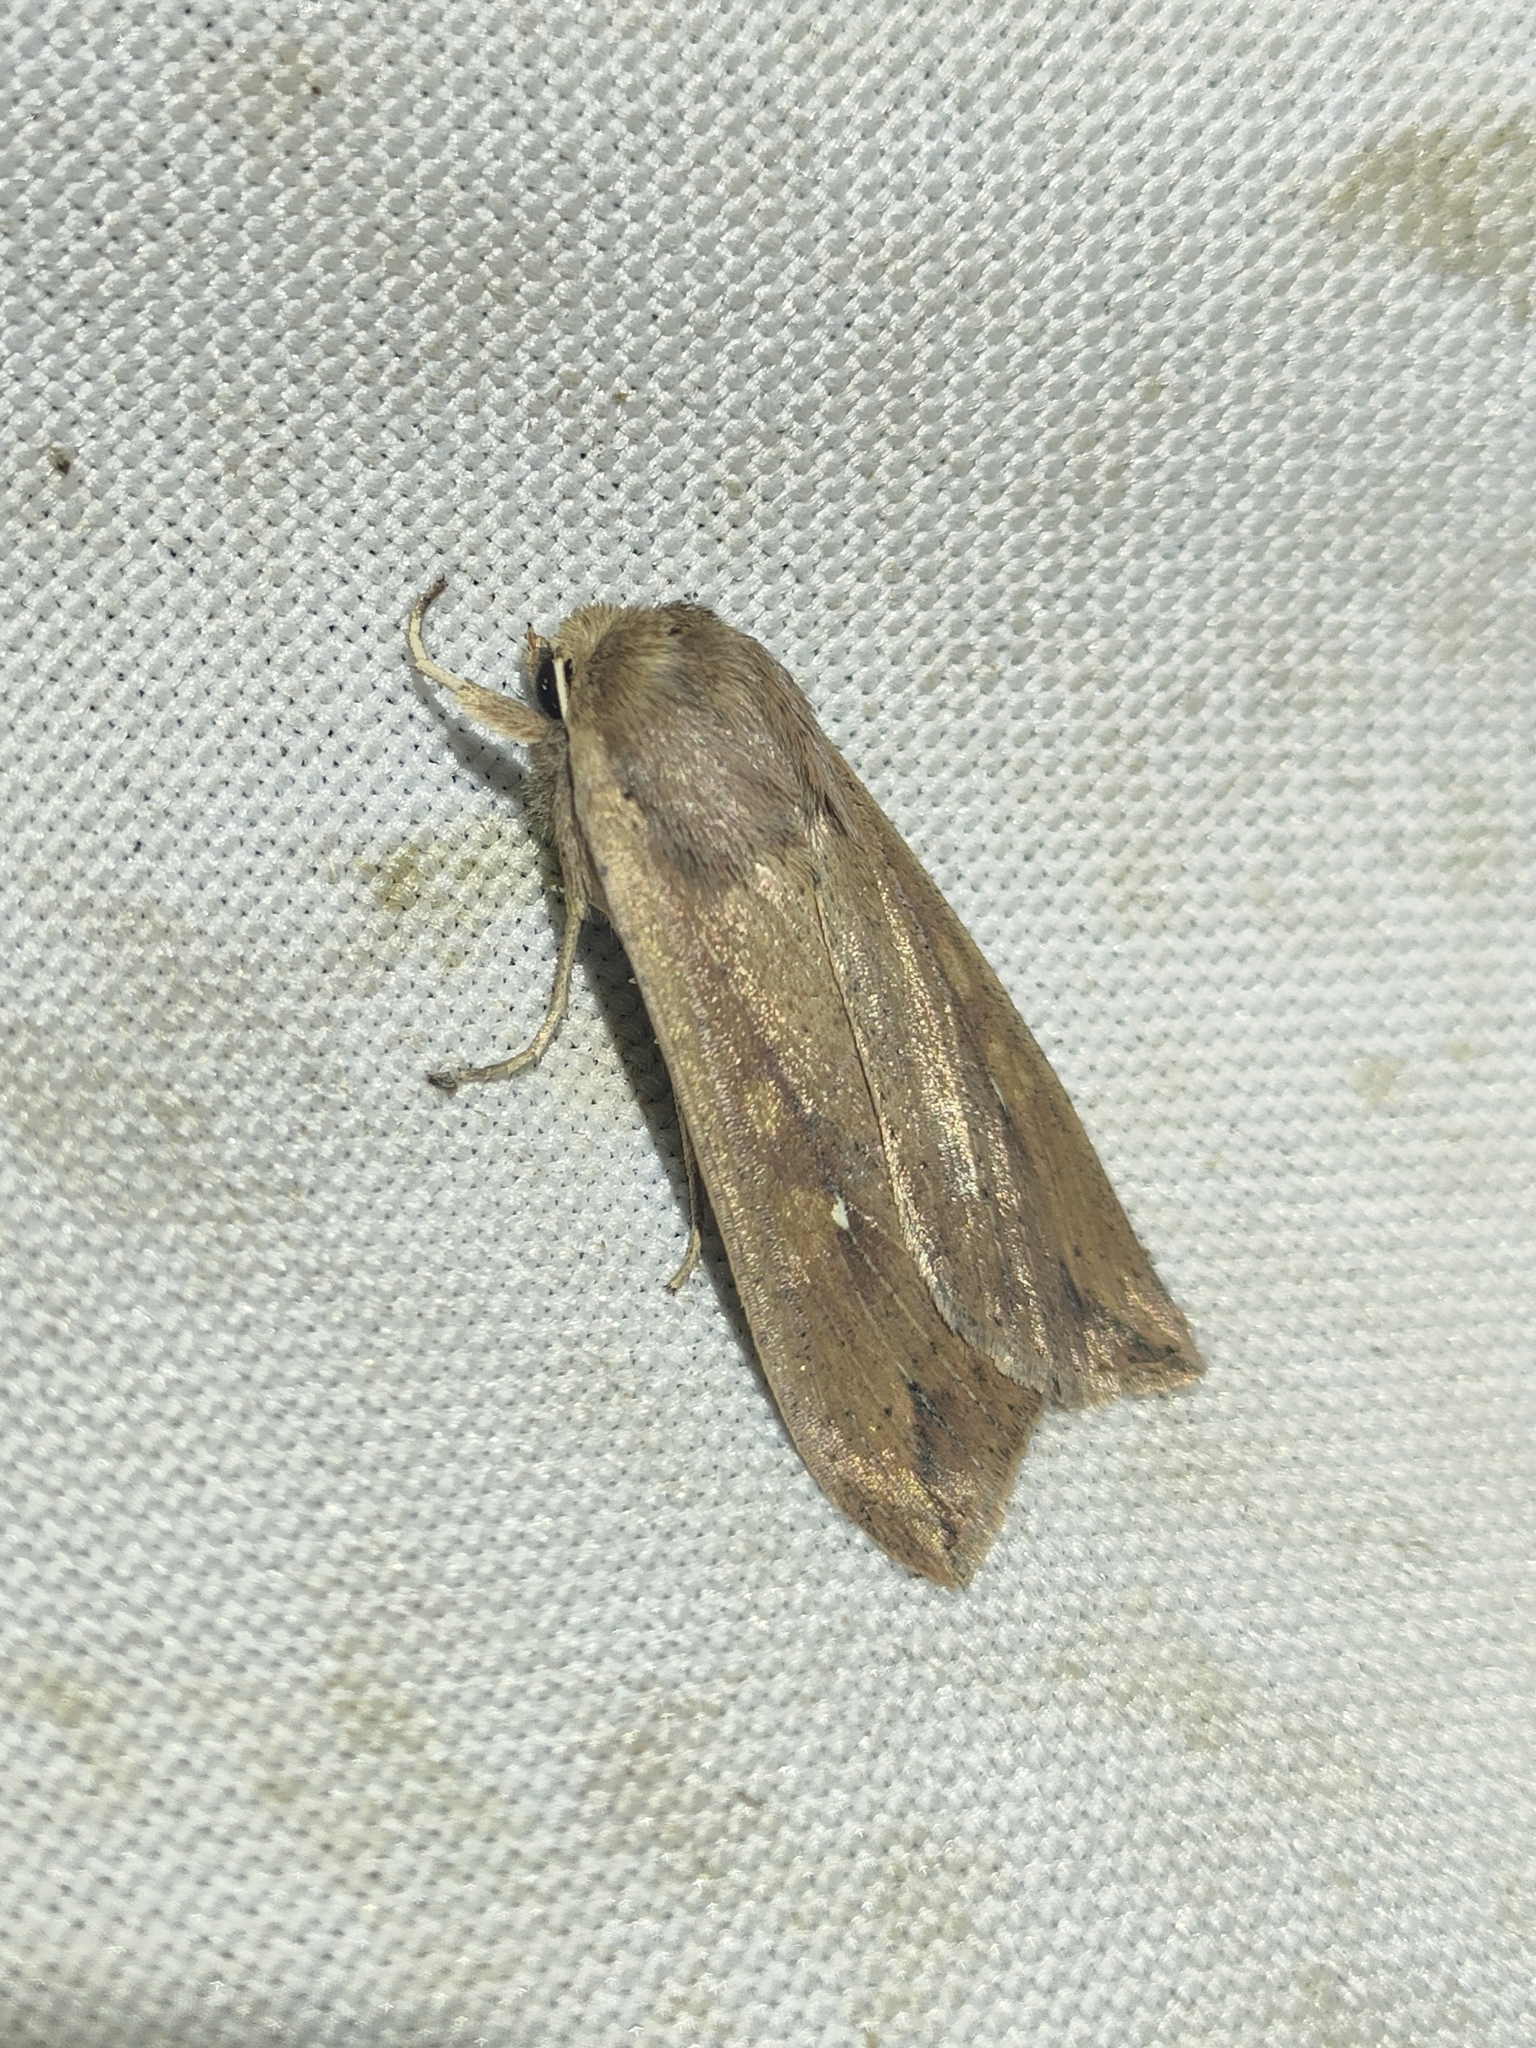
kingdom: Animalia
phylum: Arthropoda
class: Insecta
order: Lepidoptera
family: Noctuidae
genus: Mythimna
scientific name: Mythimna unipuncta
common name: White-speck
